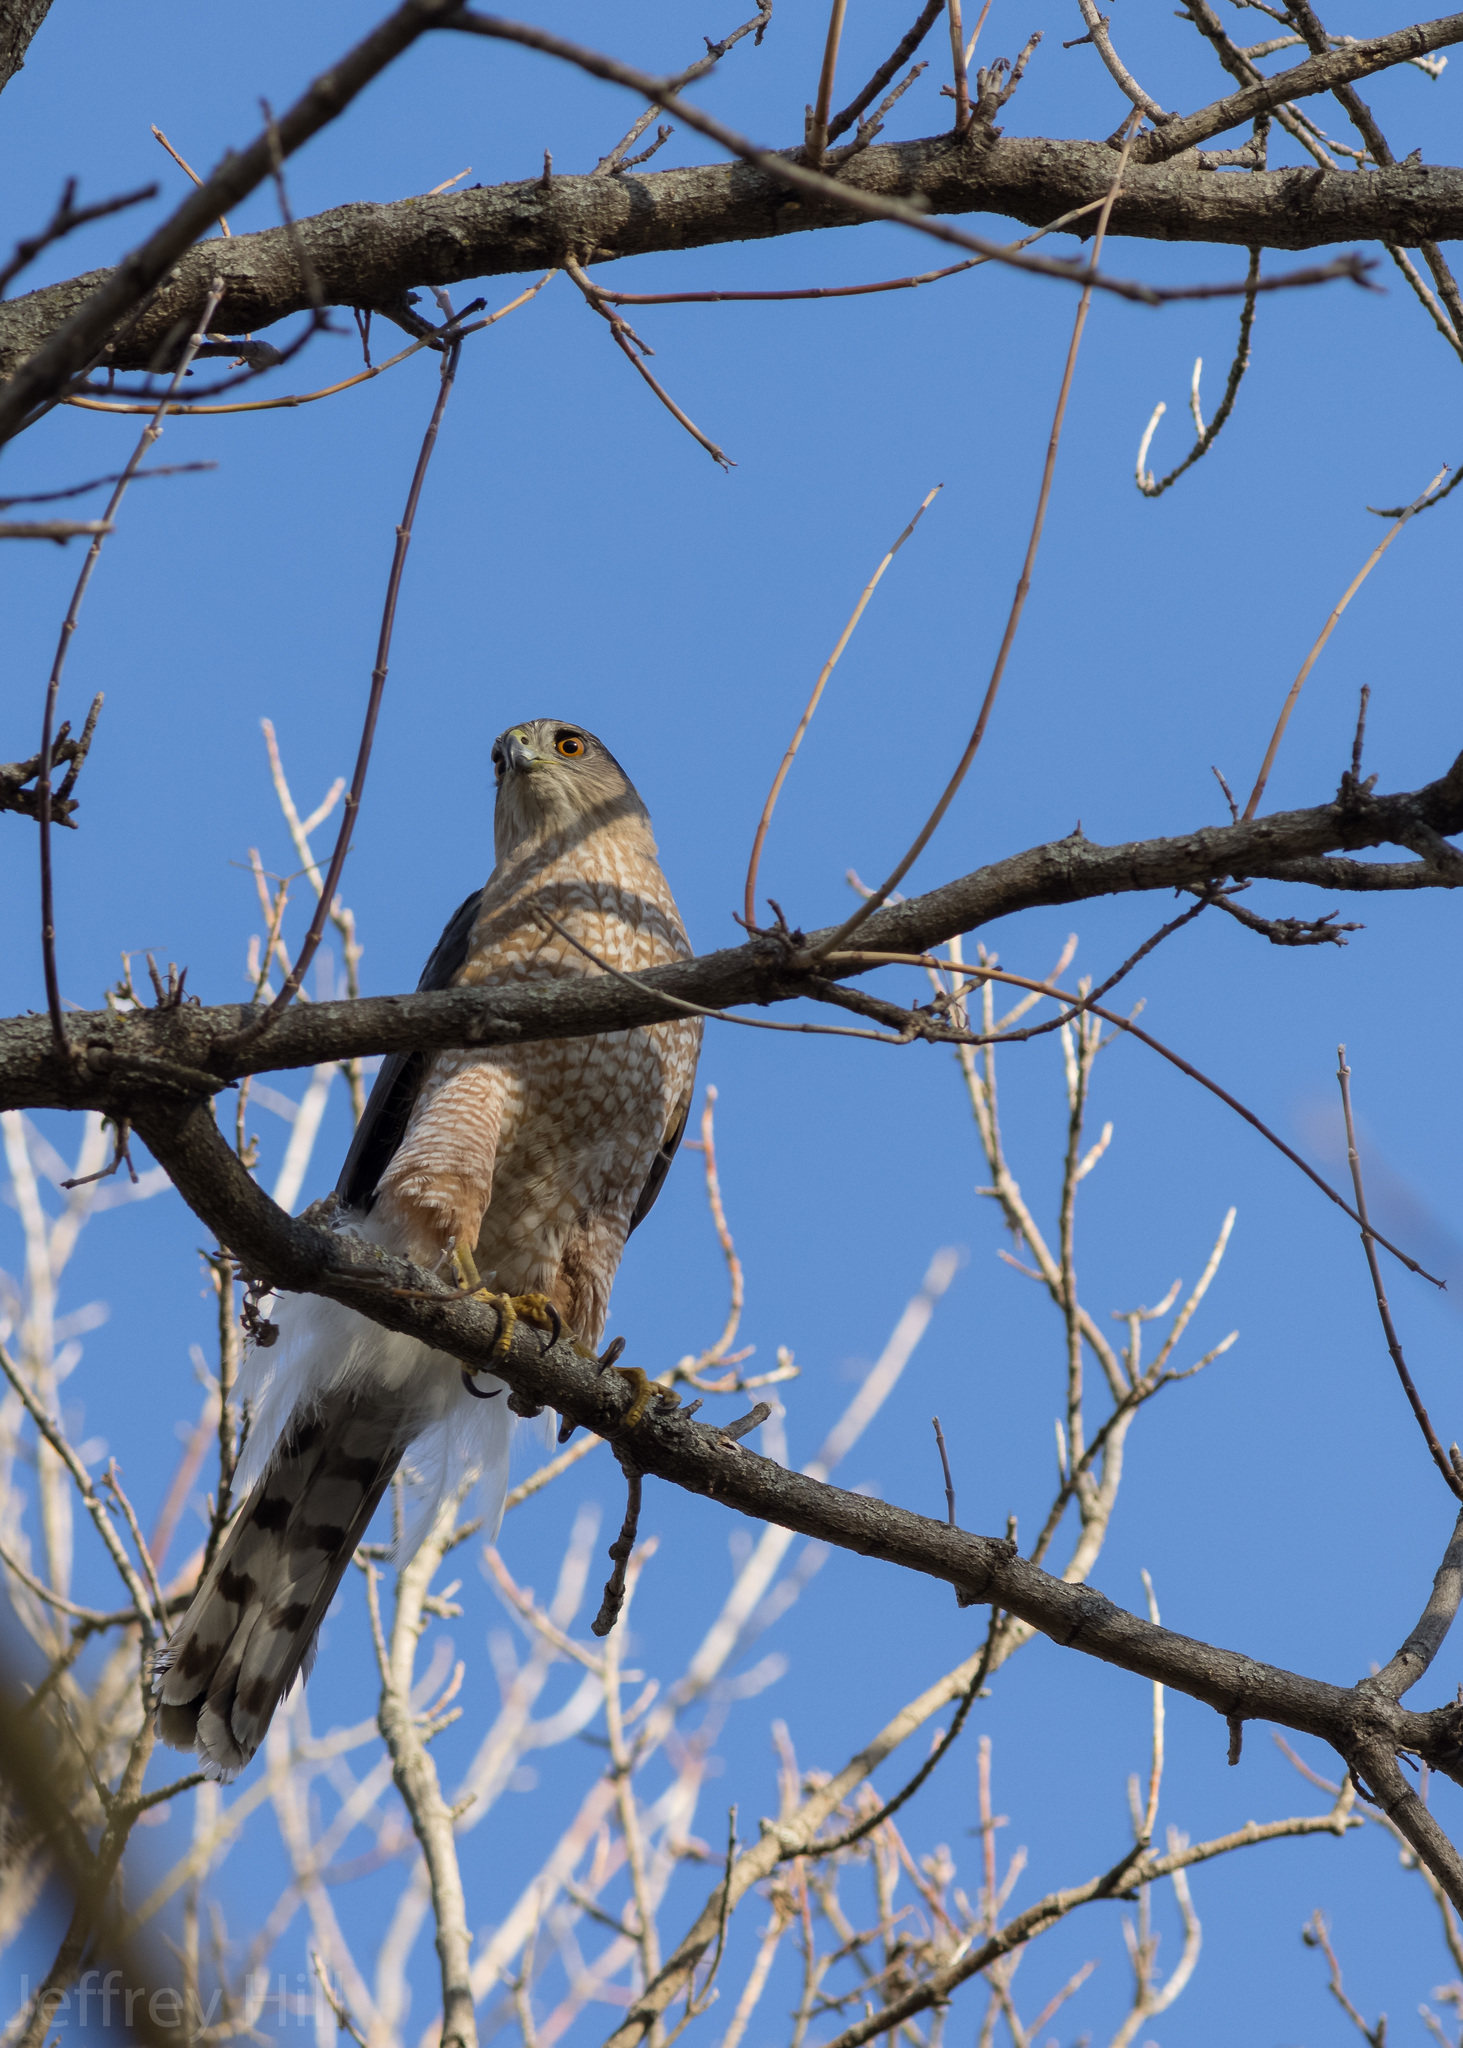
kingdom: Animalia
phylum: Chordata
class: Aves
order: Accipitriformes
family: Accipitridae
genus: Accipiter
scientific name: Accipiter cooperii
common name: Cooper's hawk
